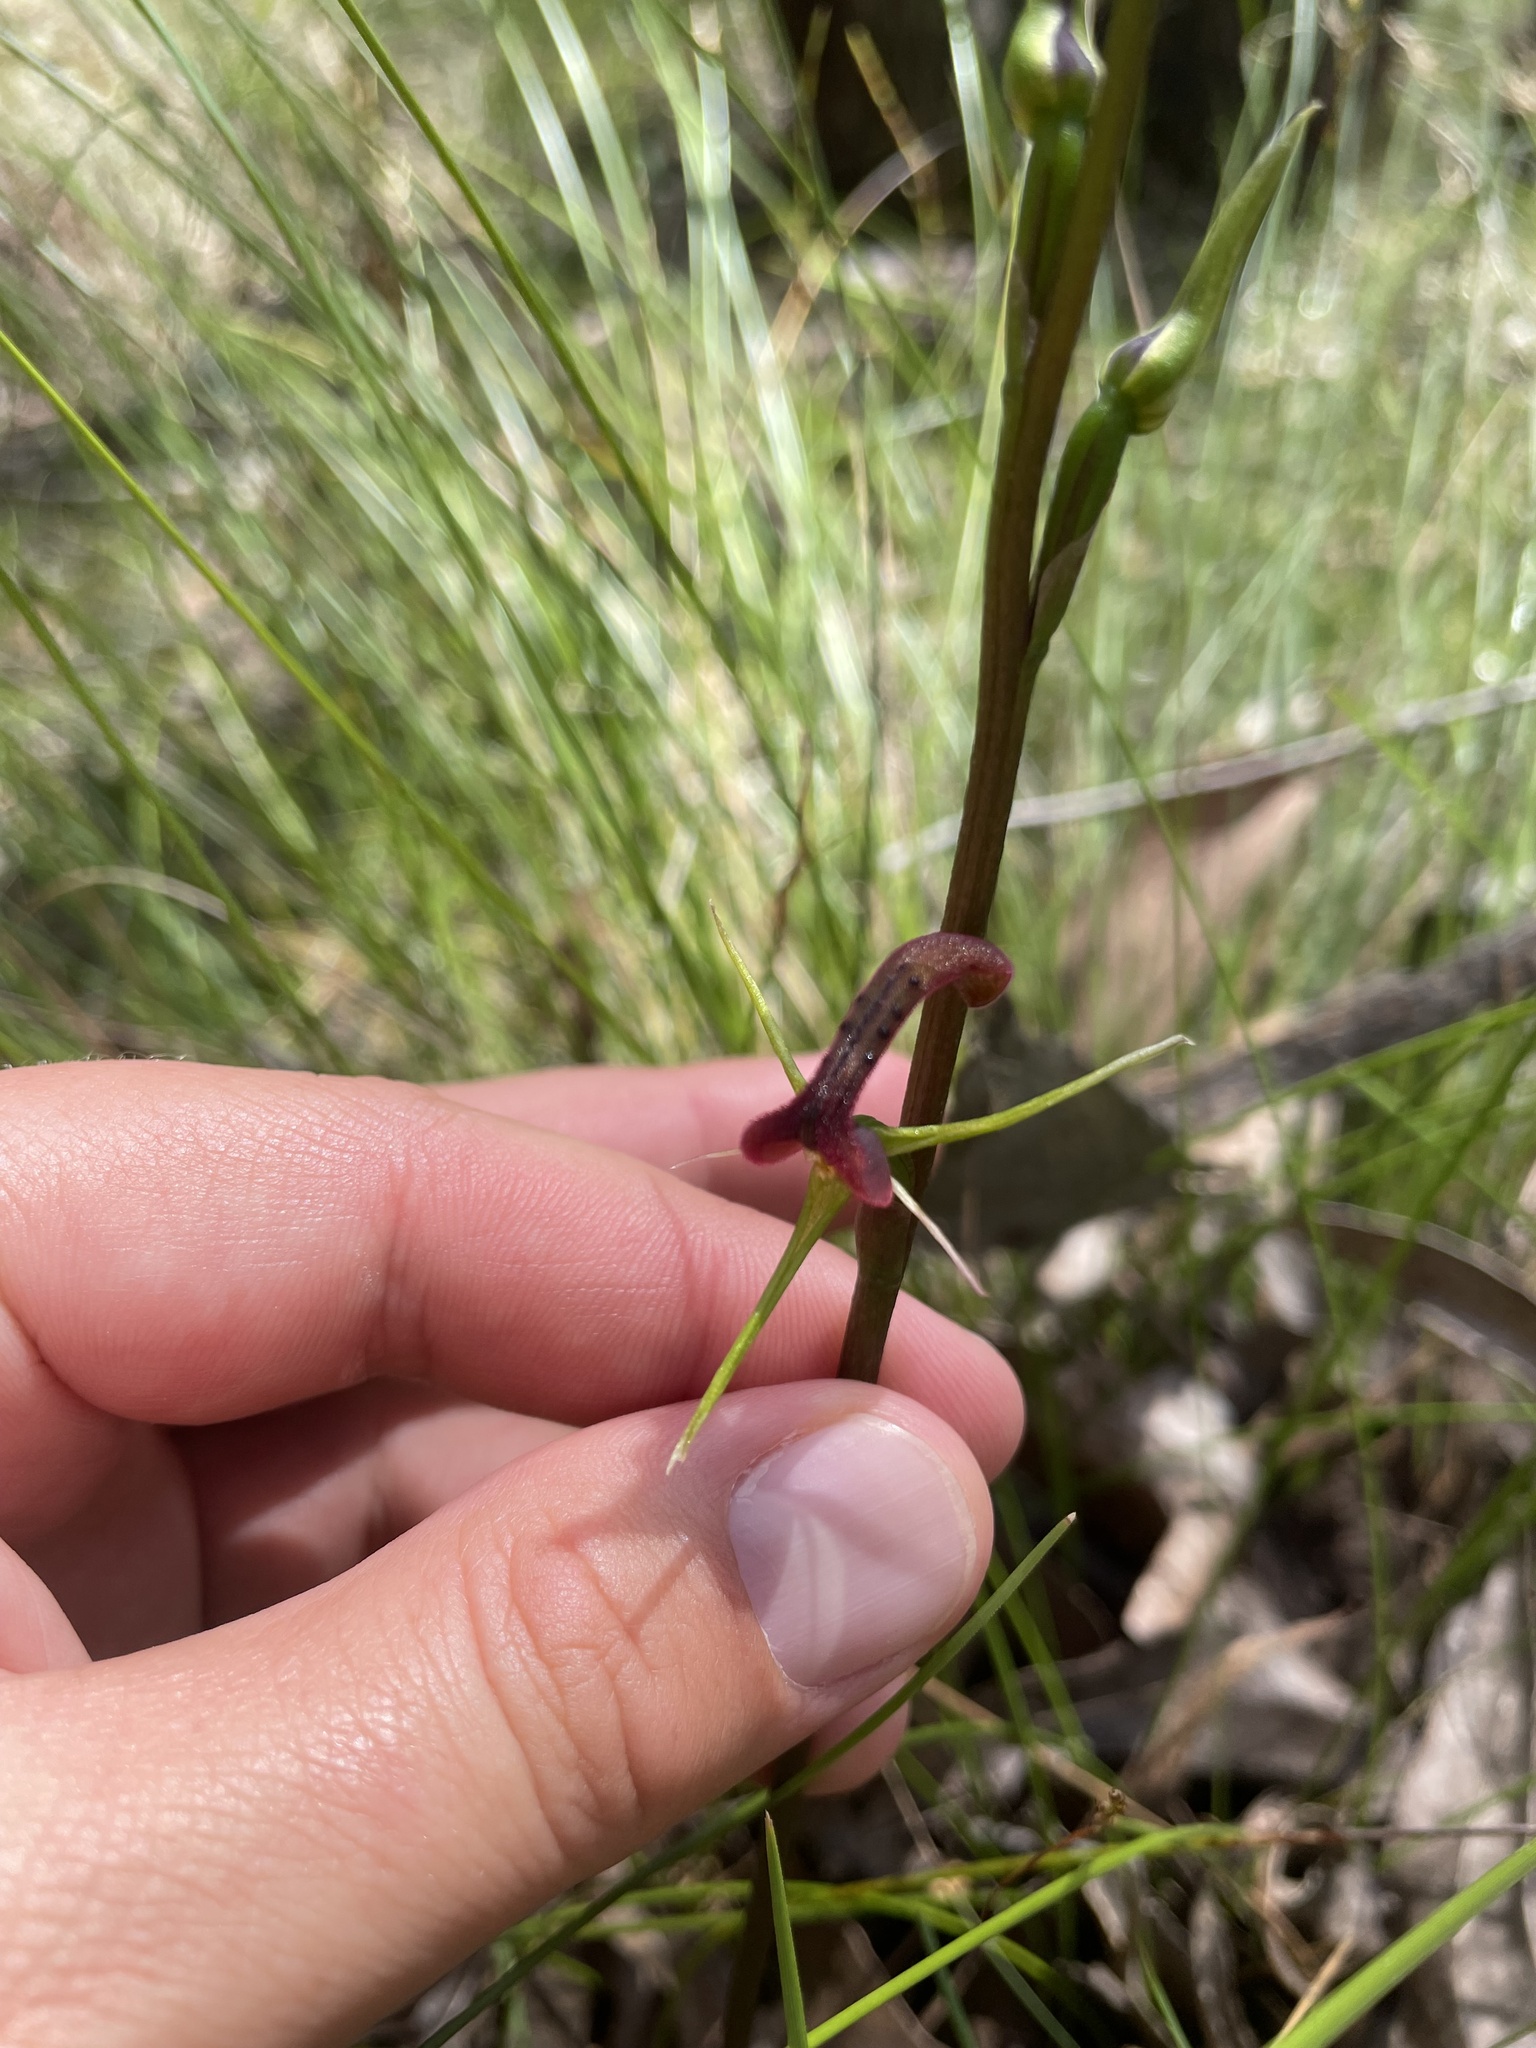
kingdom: Plantae
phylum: Tracheophyta
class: Liliopsida
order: Asparagales
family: Orchidaceae
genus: Cryptostylis
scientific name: Cryptostylis leptochila
